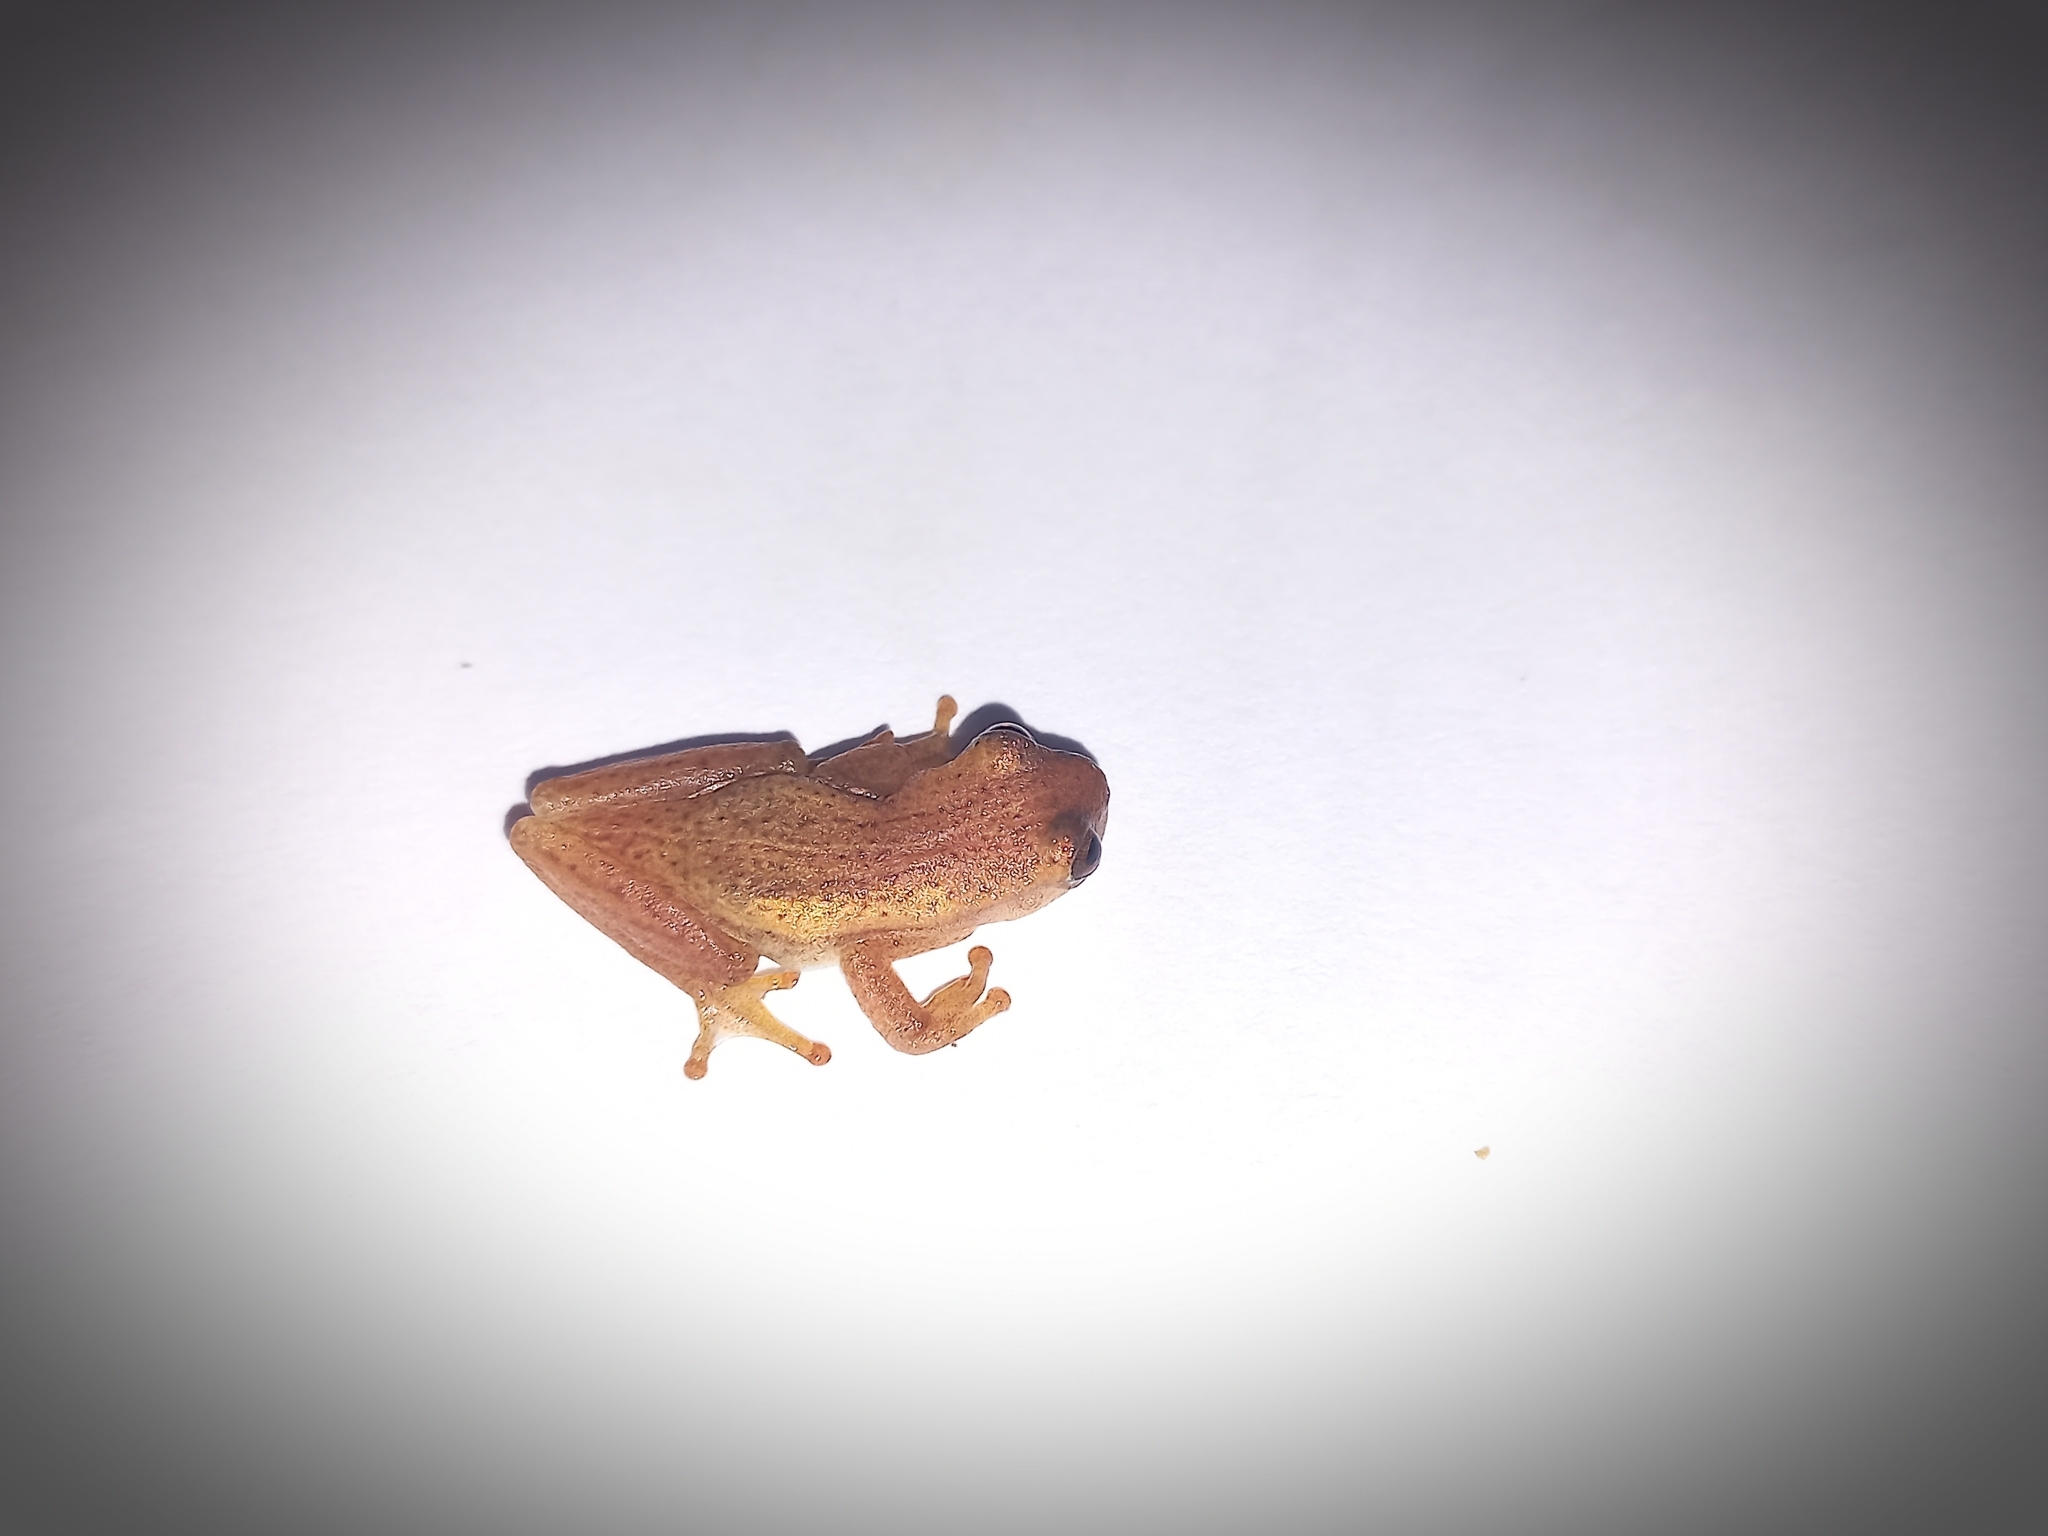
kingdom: Animalia
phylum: Chordata
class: Amphibia
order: Anura
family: Hylidae
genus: Dendropsophus
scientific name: Dendropsophus sanborni
